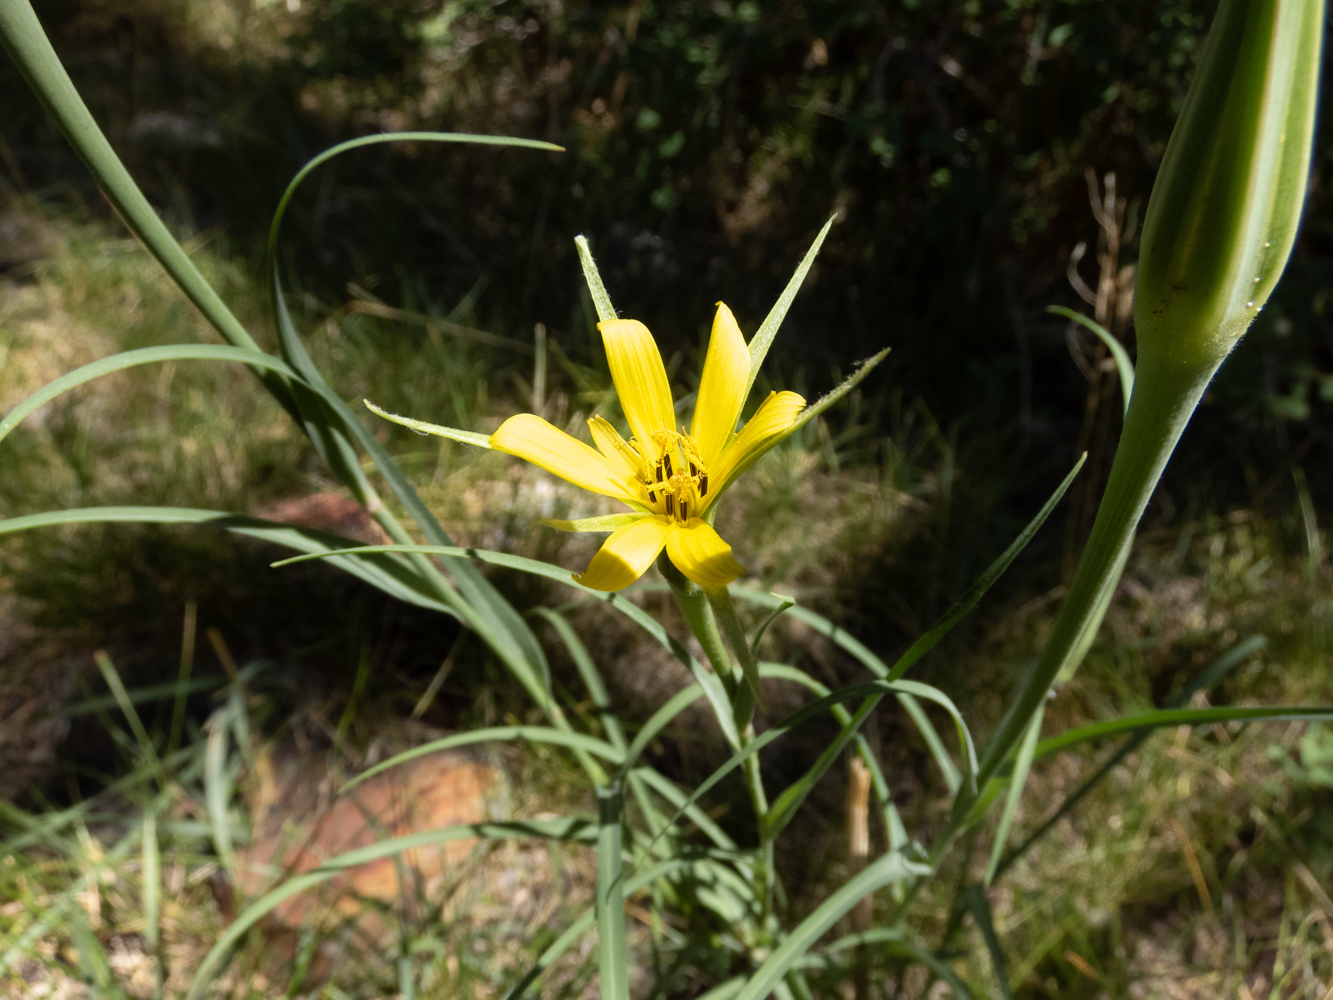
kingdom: Plantae
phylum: Tracheophyta
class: Magnoliopsida
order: Asterales
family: Asteraceae
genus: Tragopogon
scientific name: Tragopogon dubius
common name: Yellow salsify
